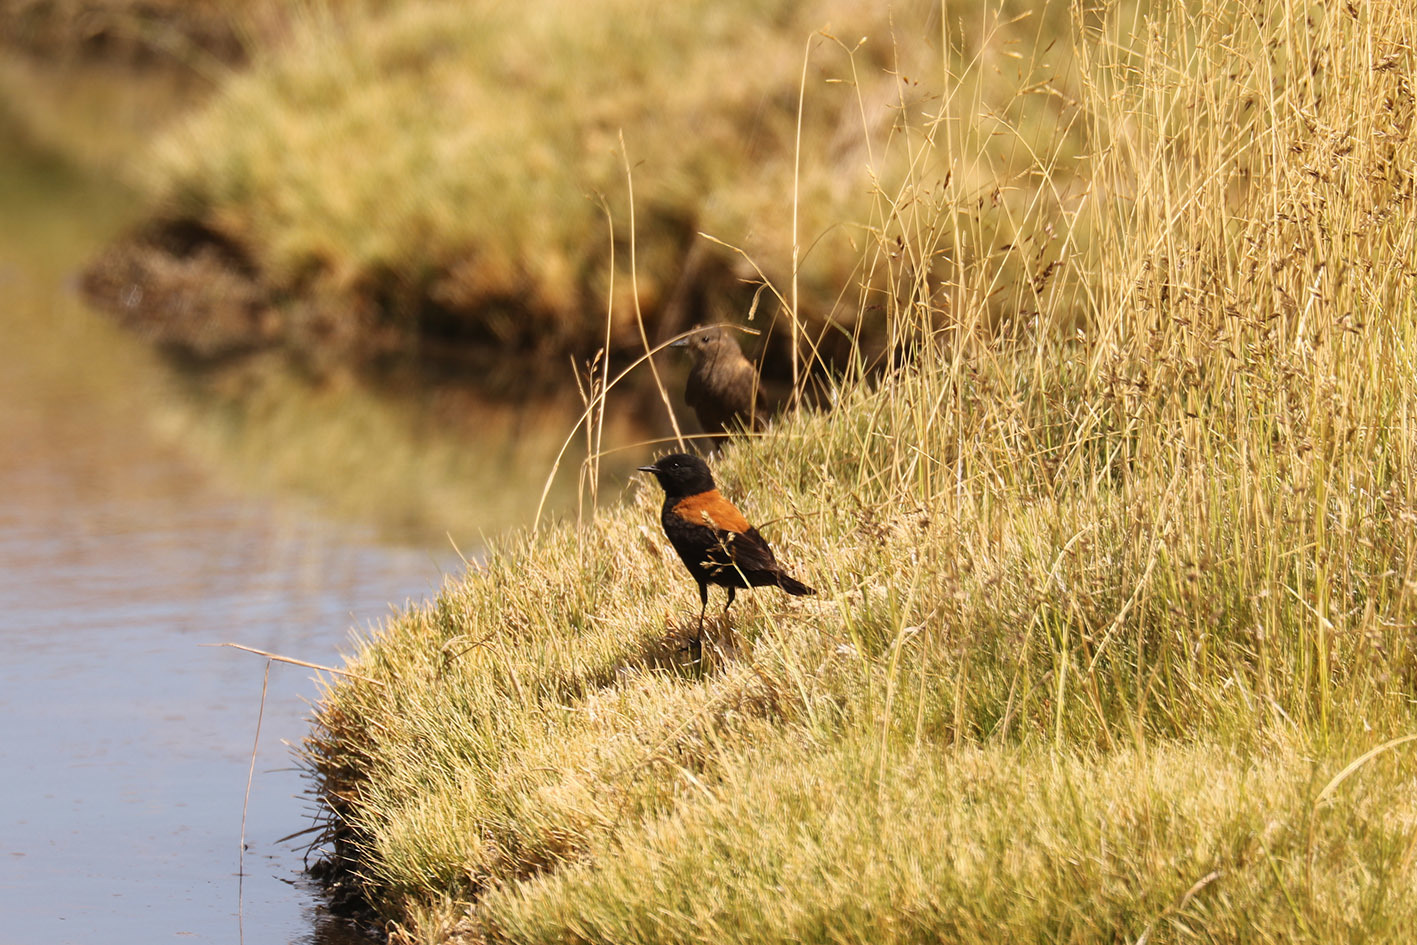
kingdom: Animalia
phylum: Chordata
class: Aves
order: Passeriformes
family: Tyrannidae
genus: Lessonia
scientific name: Lessonia oreas
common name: Andean negrito
